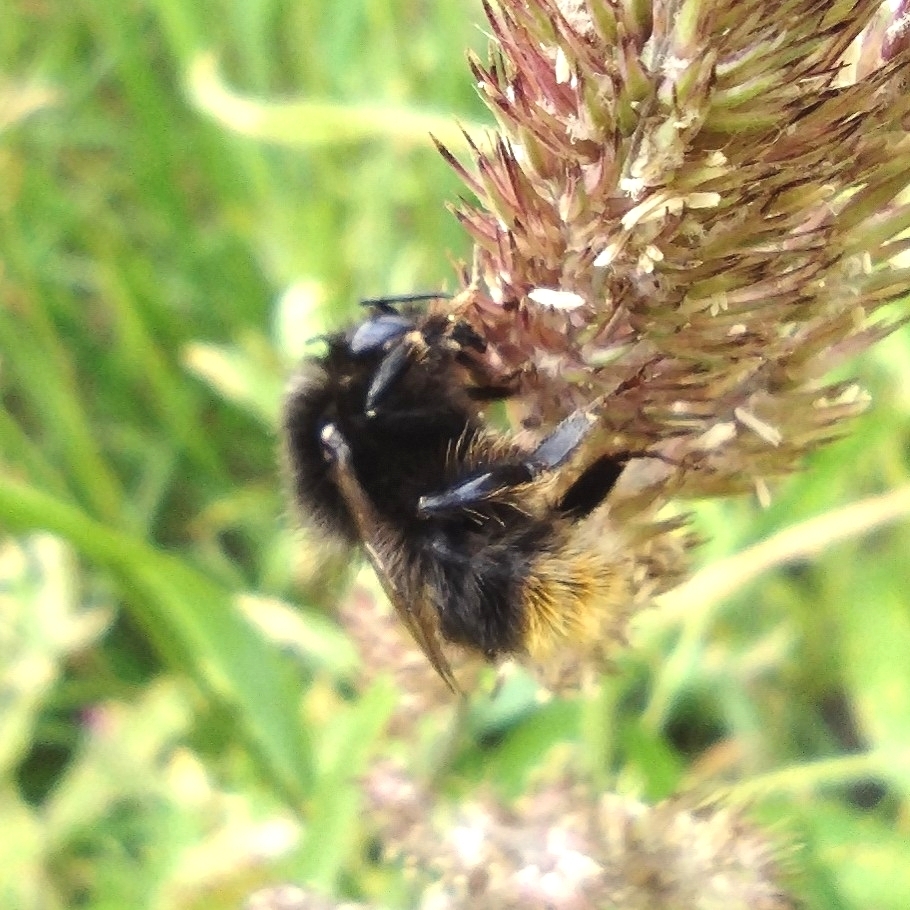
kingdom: Animalia
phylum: Arthropoda
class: Insecta
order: Hymenoptera
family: Apidae
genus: Bombus
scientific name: Bombus ruderarius
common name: Red-shanked carder-bee
